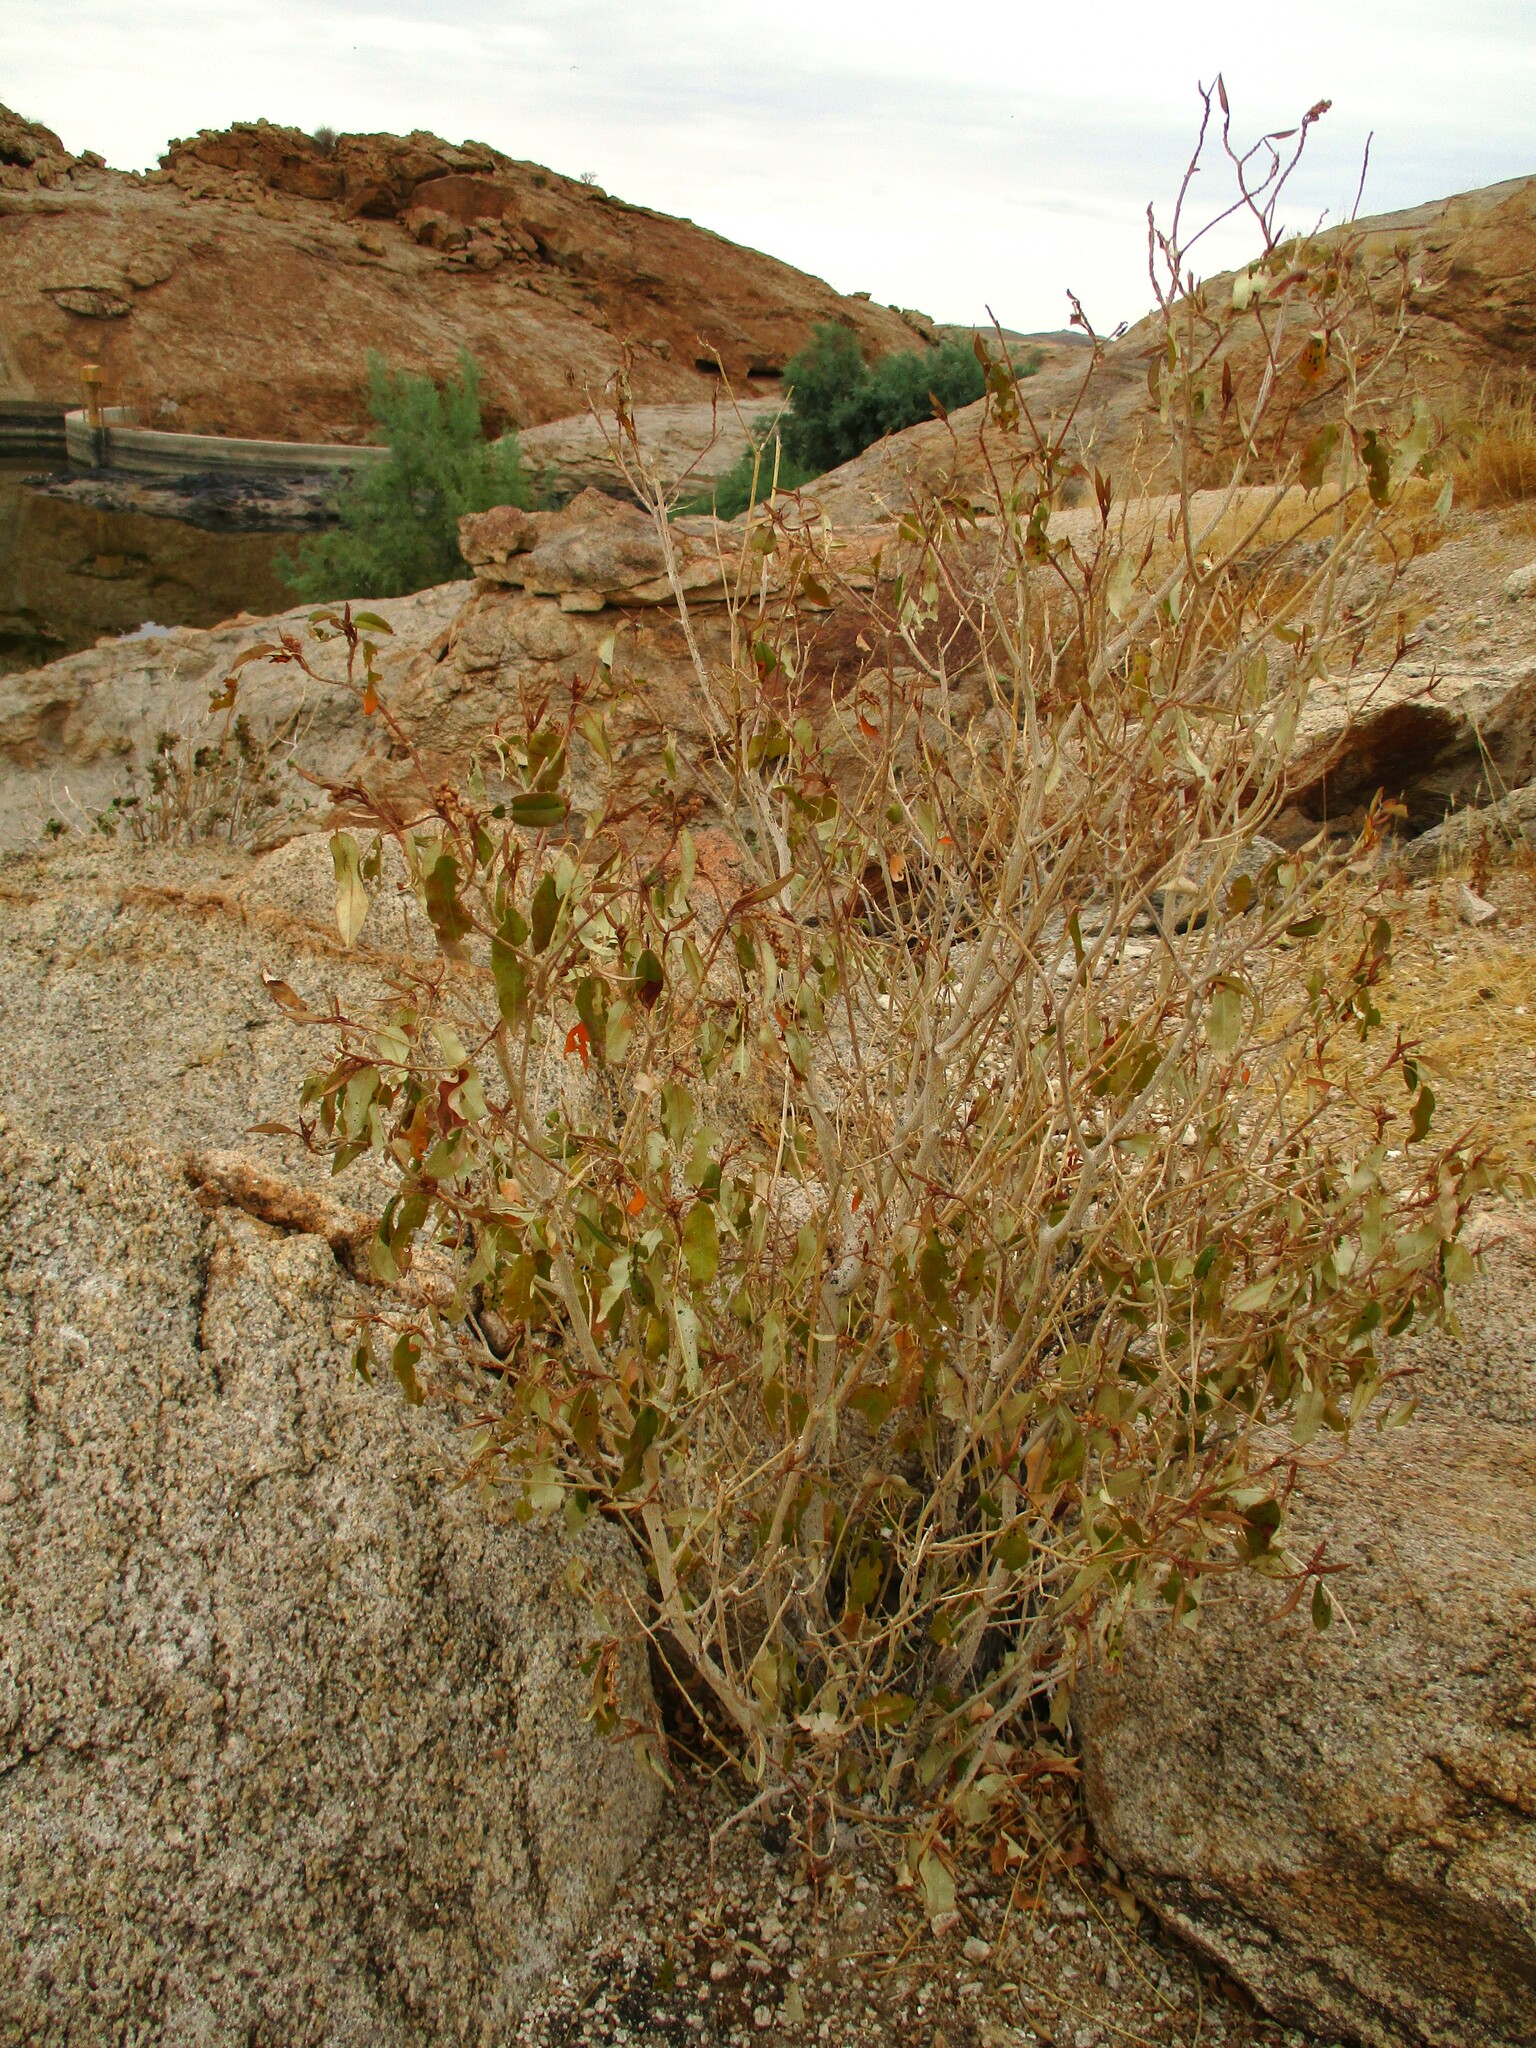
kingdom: Plantae
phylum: Tracheophyta
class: Magnoliopsida
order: Malpighiales
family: Euphorbiaceae
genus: Croton
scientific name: Croton gratissimus
